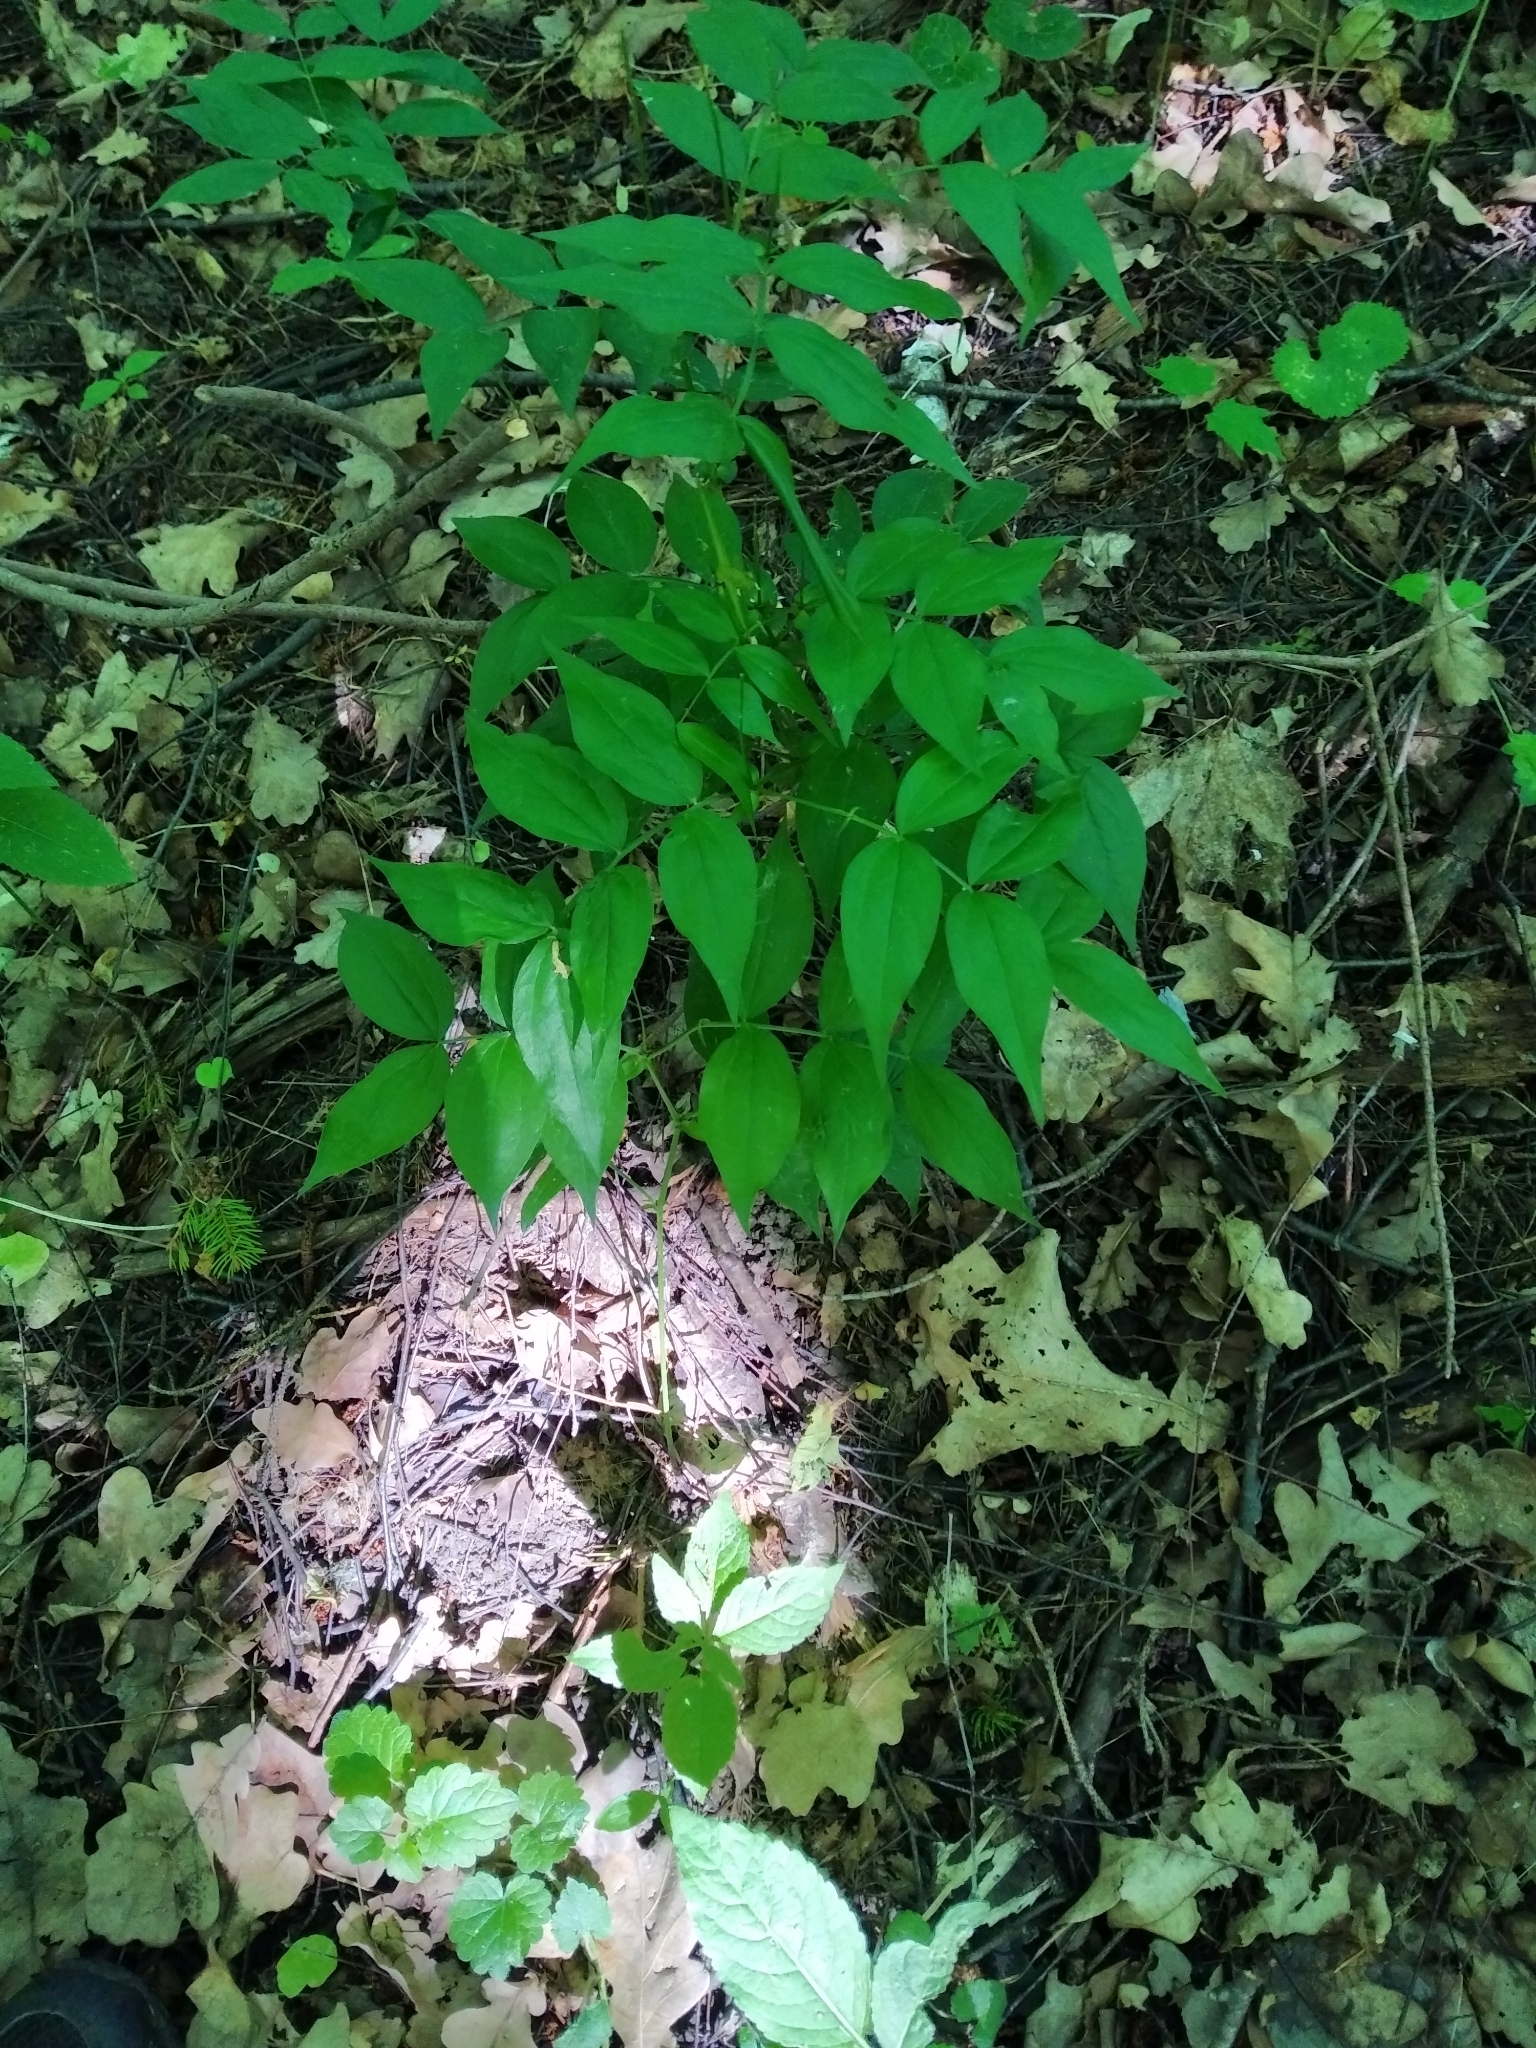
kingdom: Plantae
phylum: Tracheophyta
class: Magnoliopsida
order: Fabales
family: Fabaceae
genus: Lathyrus
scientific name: Lathyrus vernus
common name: Spring pea
